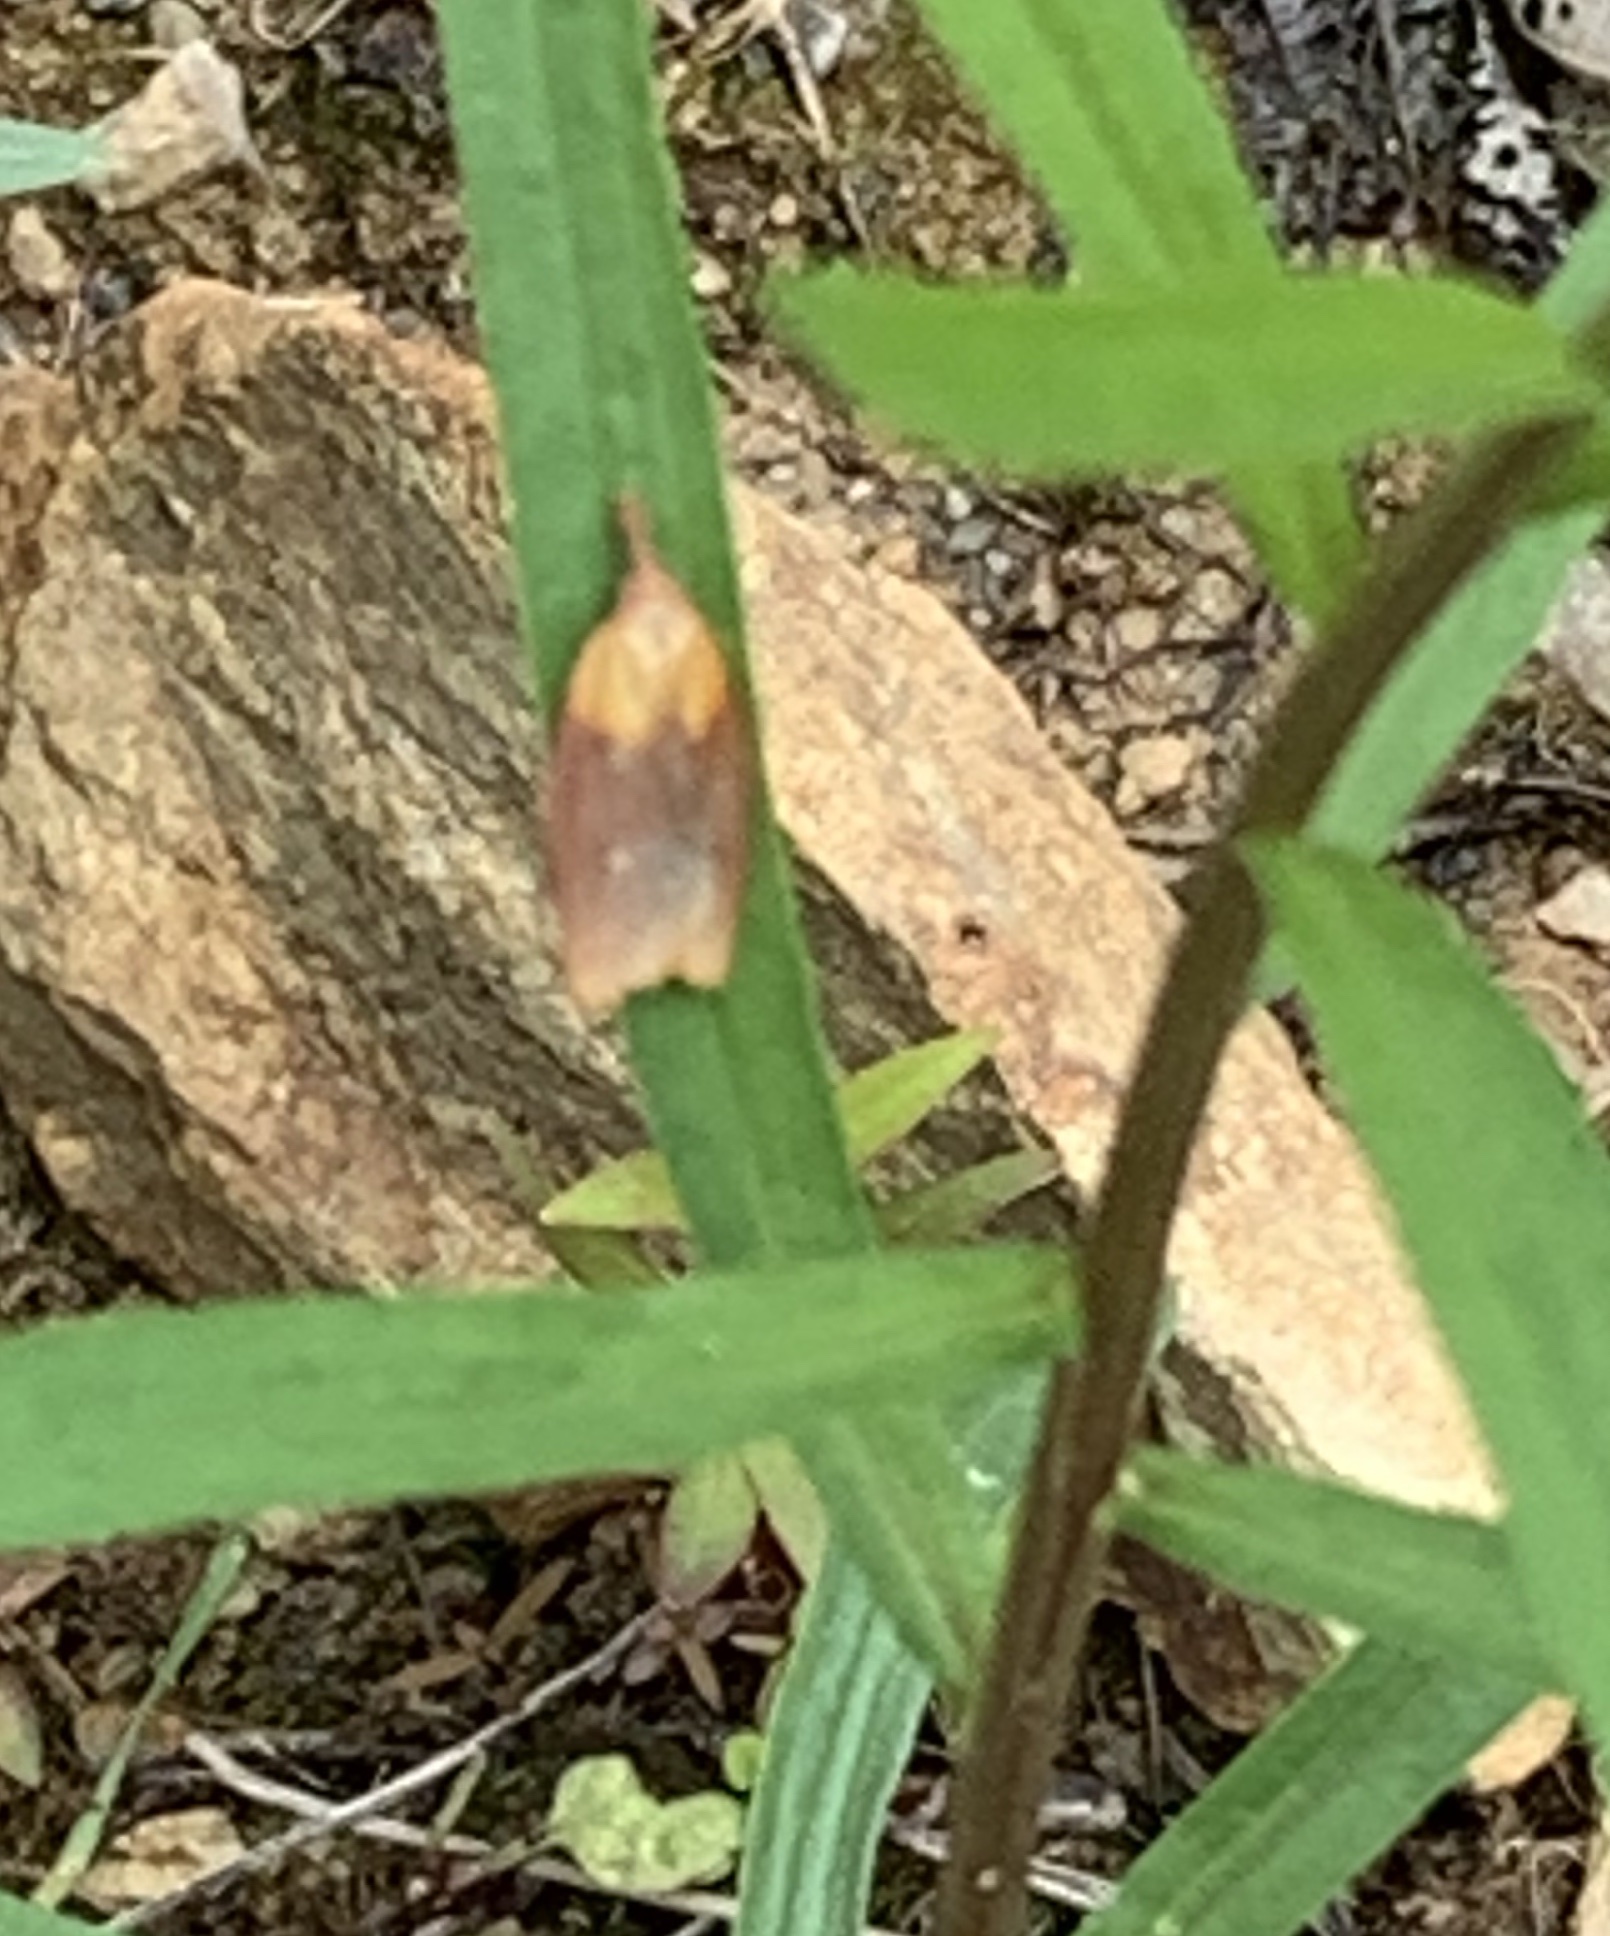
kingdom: Animalia
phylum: Arthropoda
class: Insecta
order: Lepidoptera
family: Tortricidae
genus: Sparganothis
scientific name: Sparganothis violaceana
